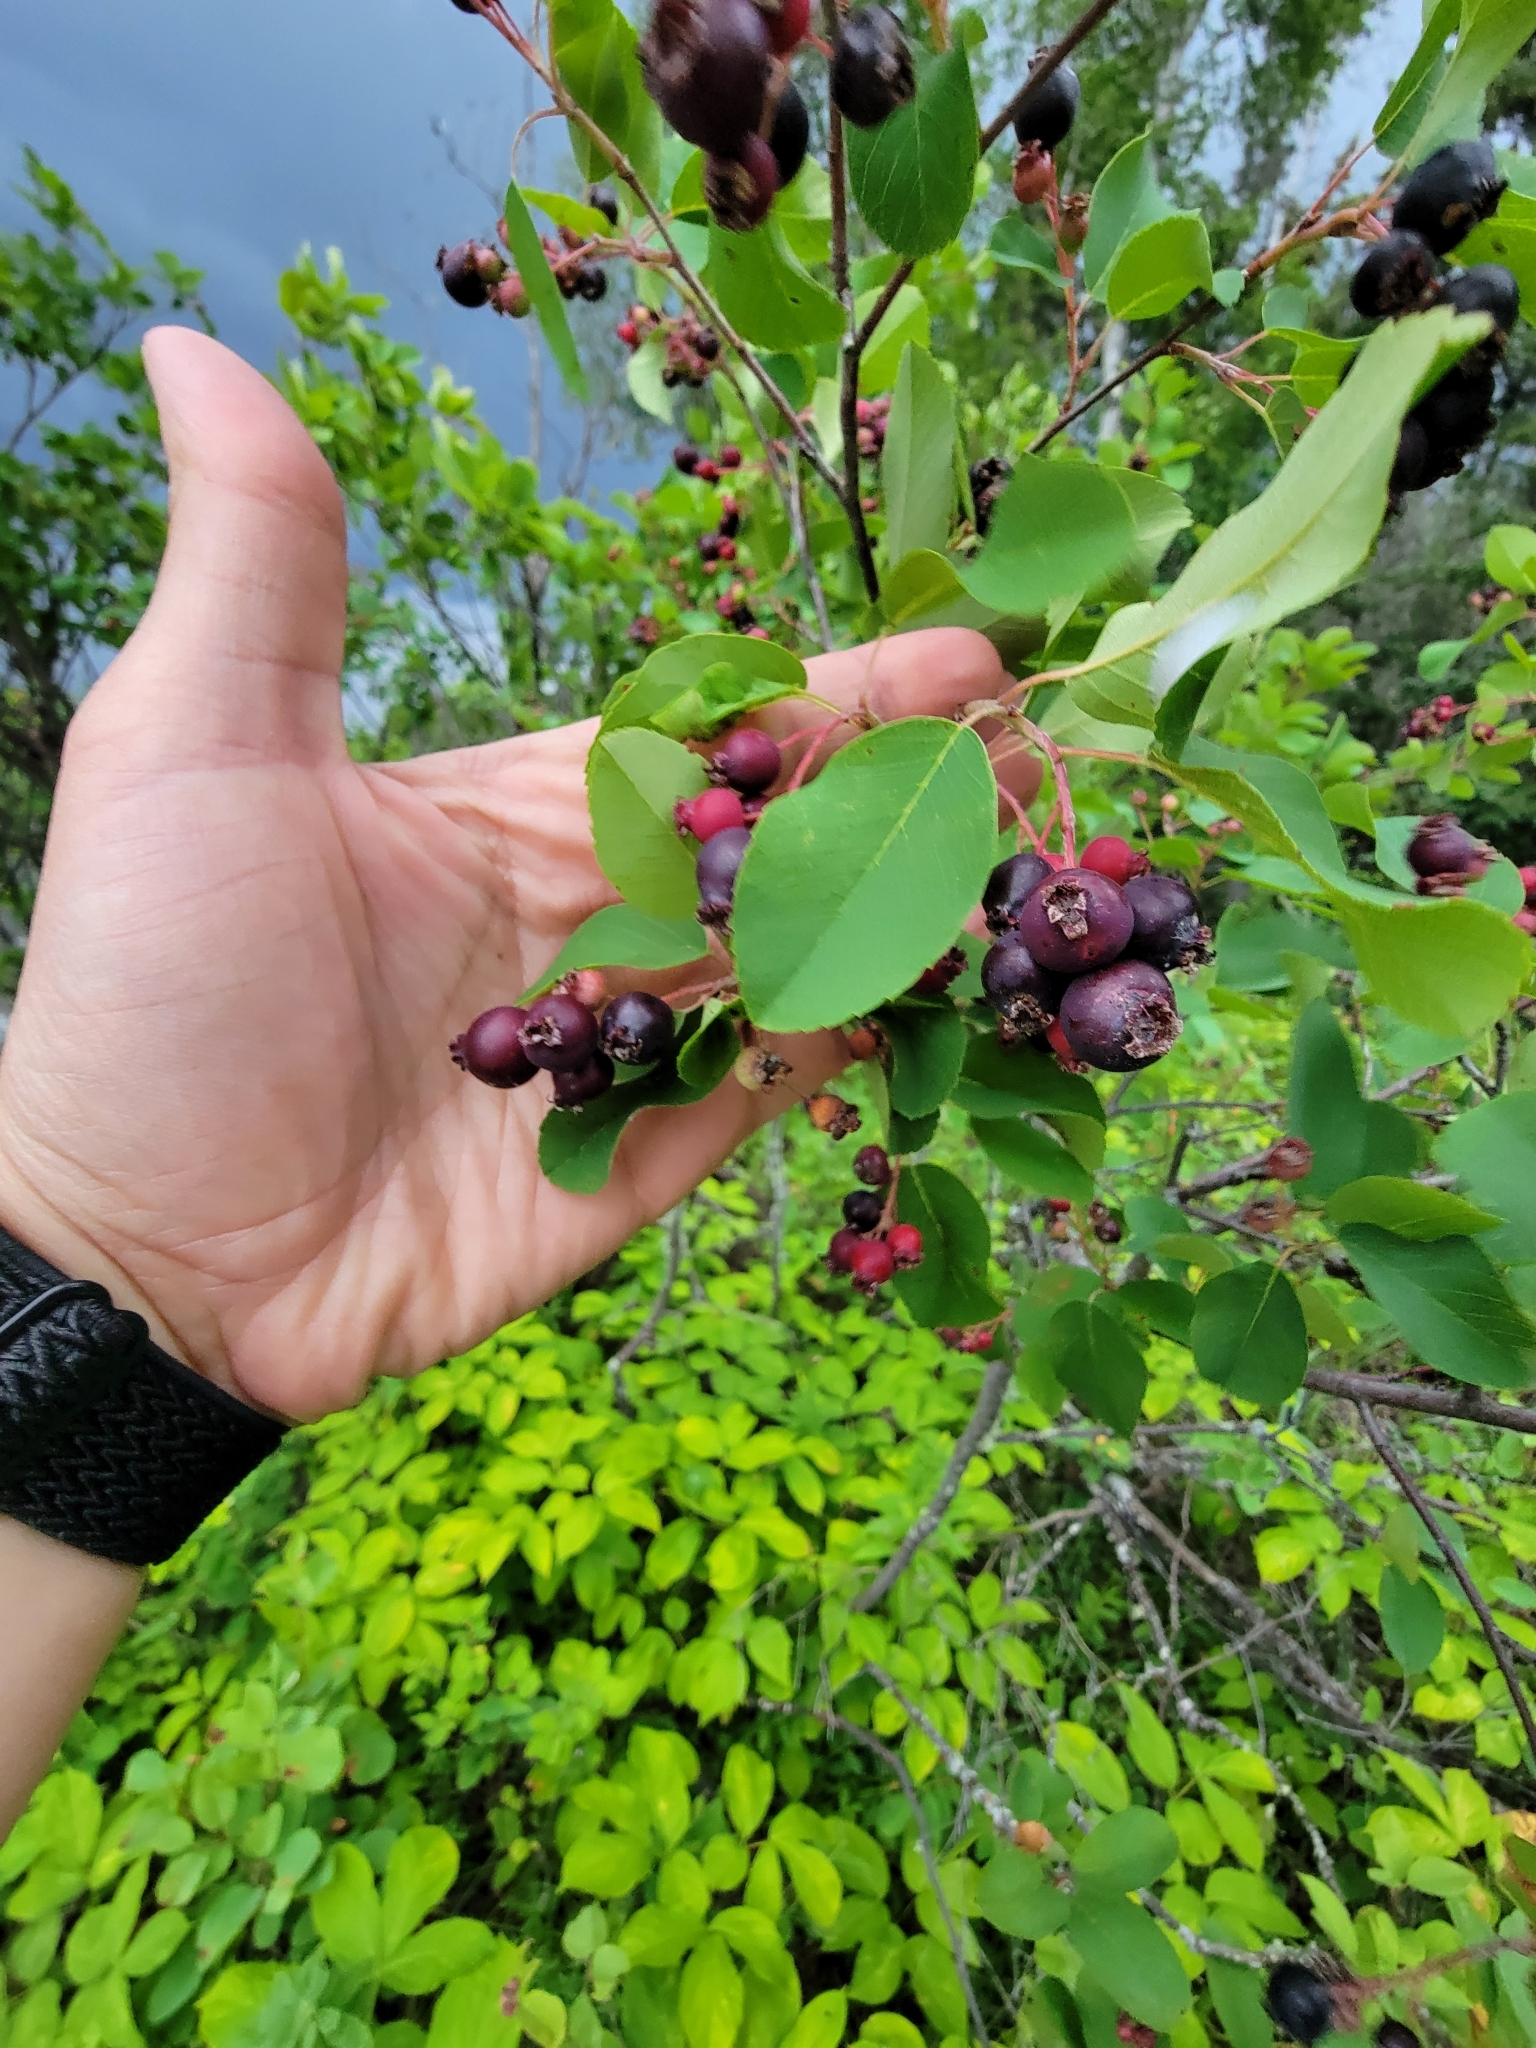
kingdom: Plantae
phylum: Tracheophyta
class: Magnoliopsida
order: Rosales
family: Rosaceae
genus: Amelanchier
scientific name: Amelanchier alnifolia
